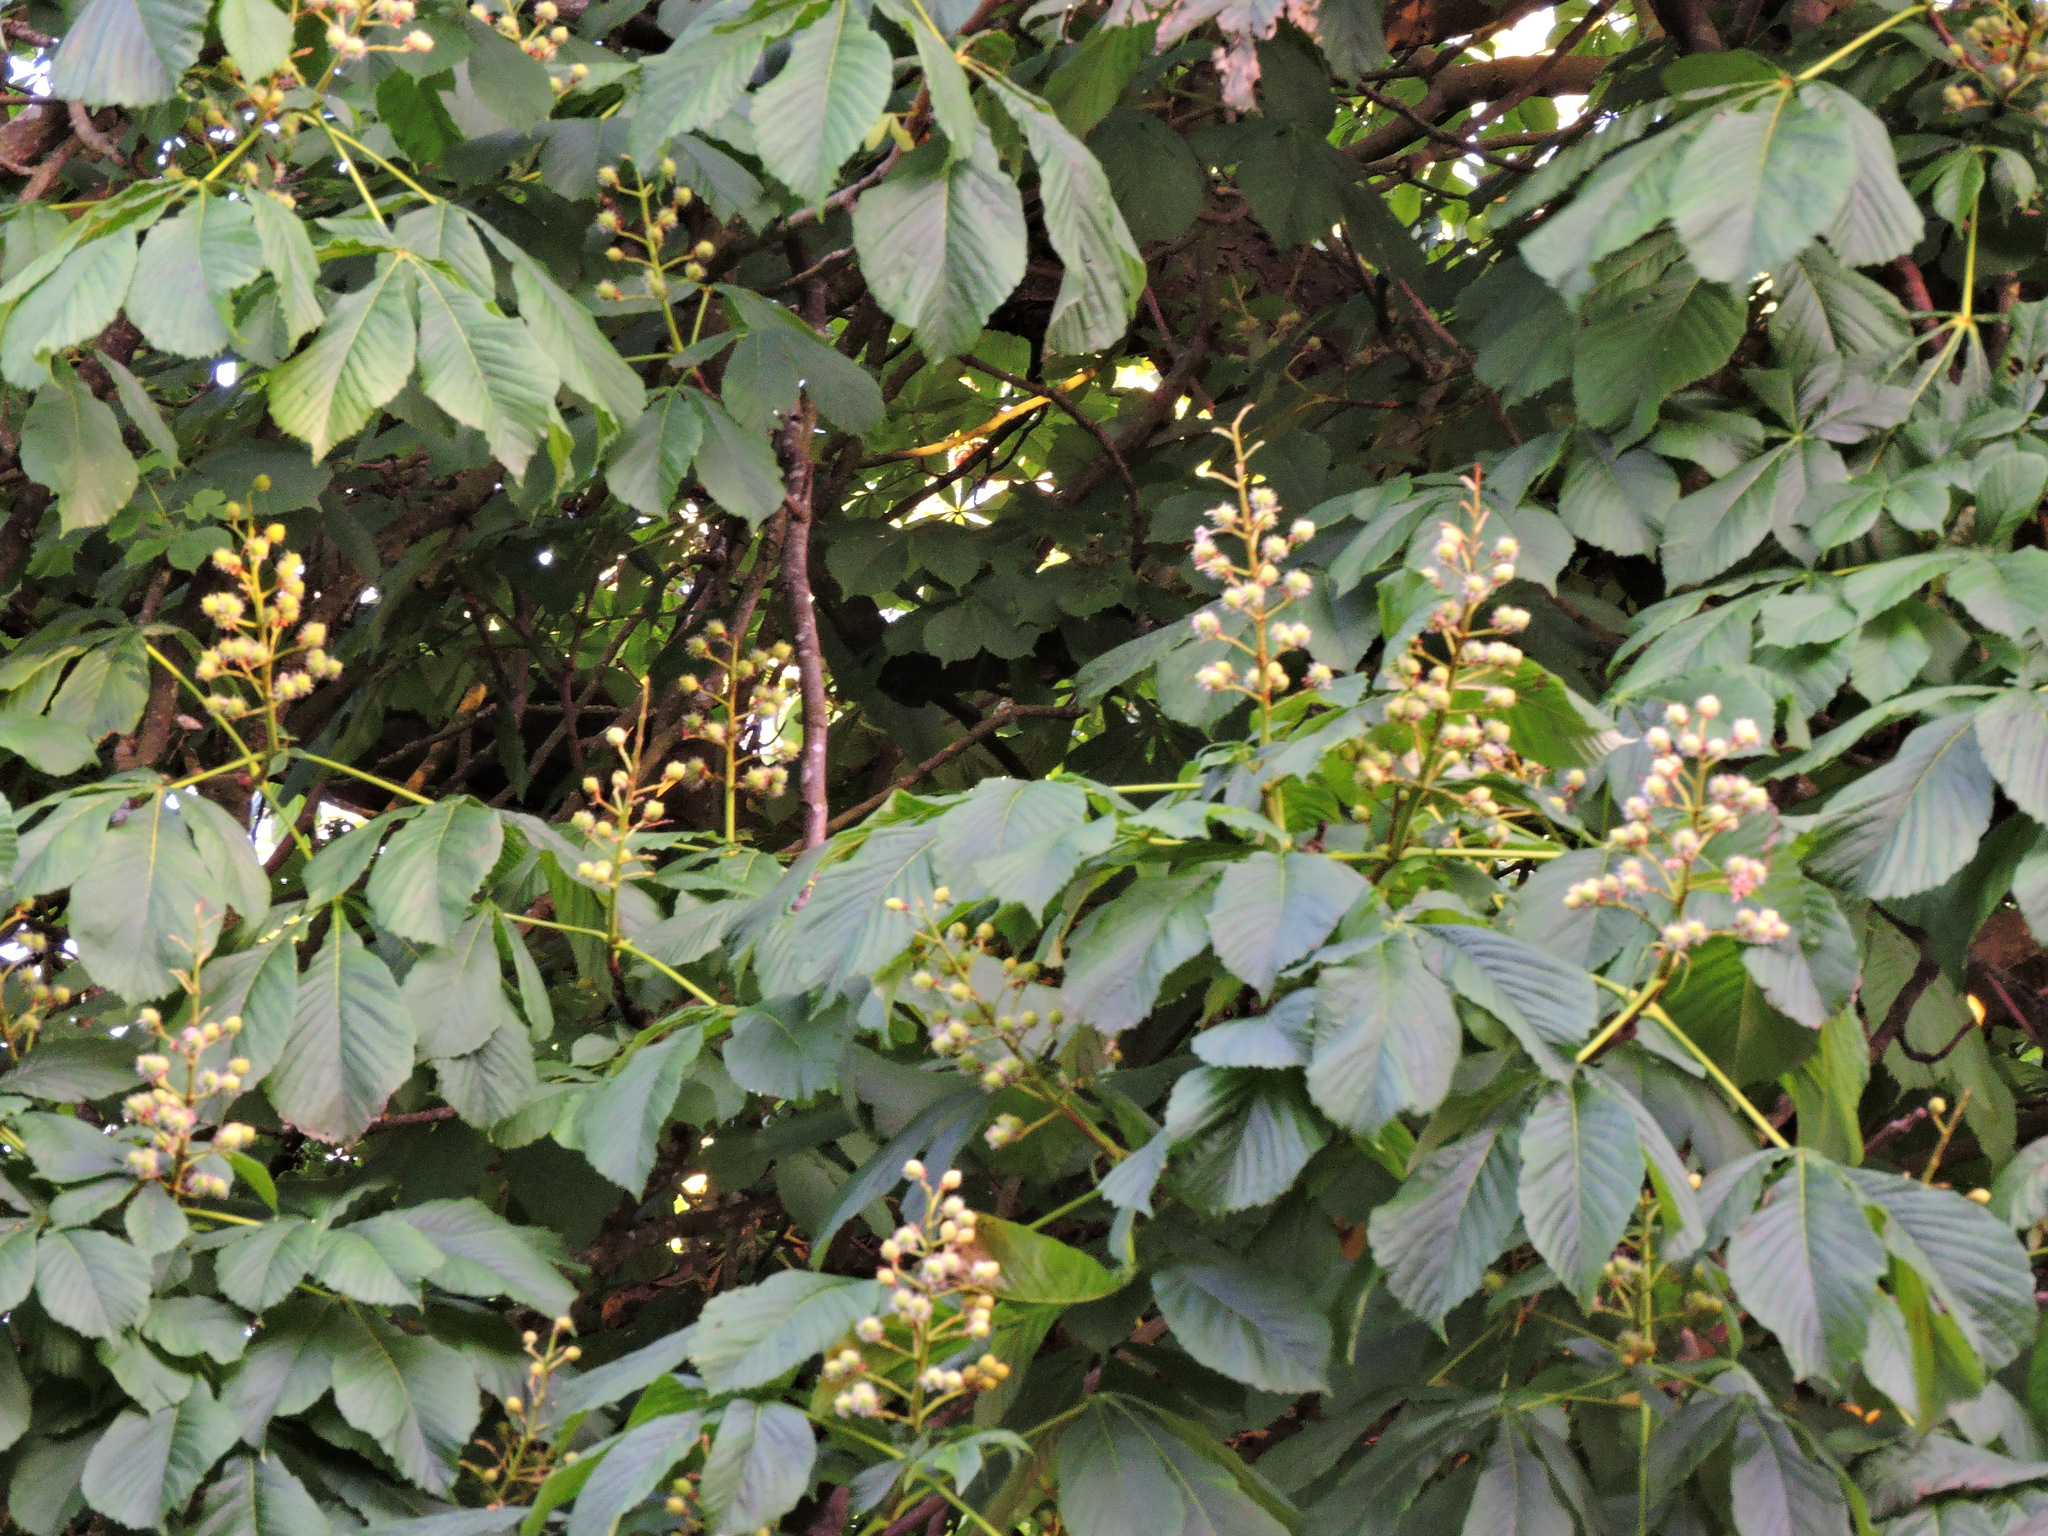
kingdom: Plantae
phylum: Tracheophyta
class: Magnoliopsida
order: Sapindales
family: Sapindaceae
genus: Aesculus
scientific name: Aesculus hippocastanum
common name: Horse-chestnut
